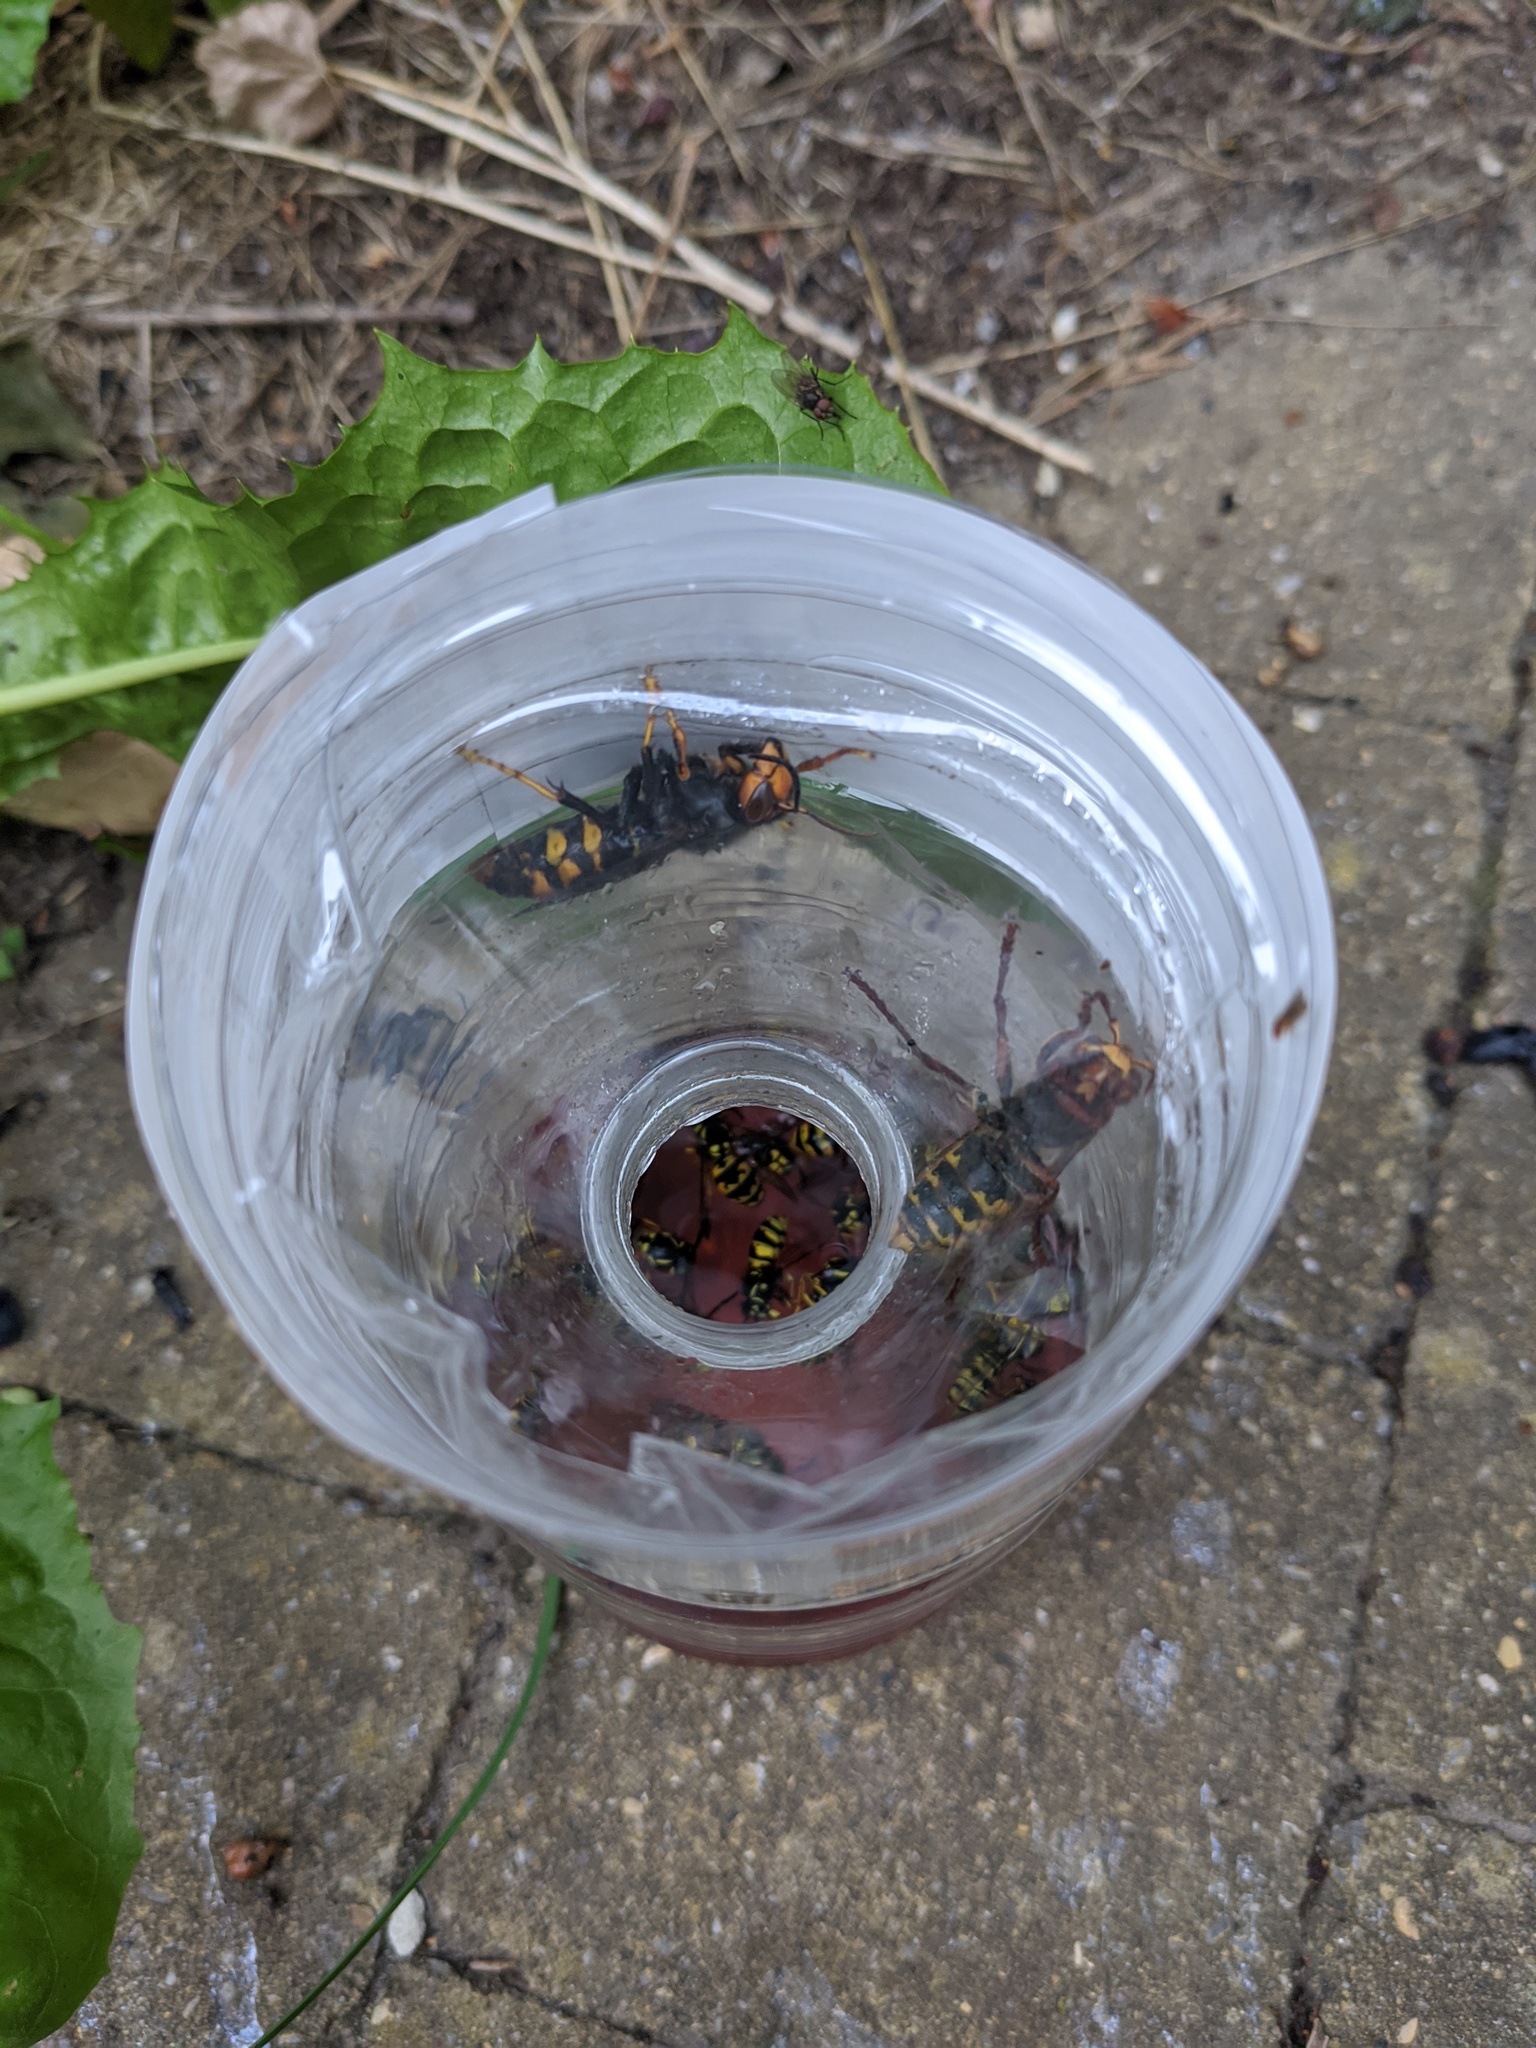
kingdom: Animalia
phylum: Arthropoda
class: Insecta
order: Hymenoptera
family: Vespidae
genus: Vespa
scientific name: Vespa velutina
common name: Asian hornet
